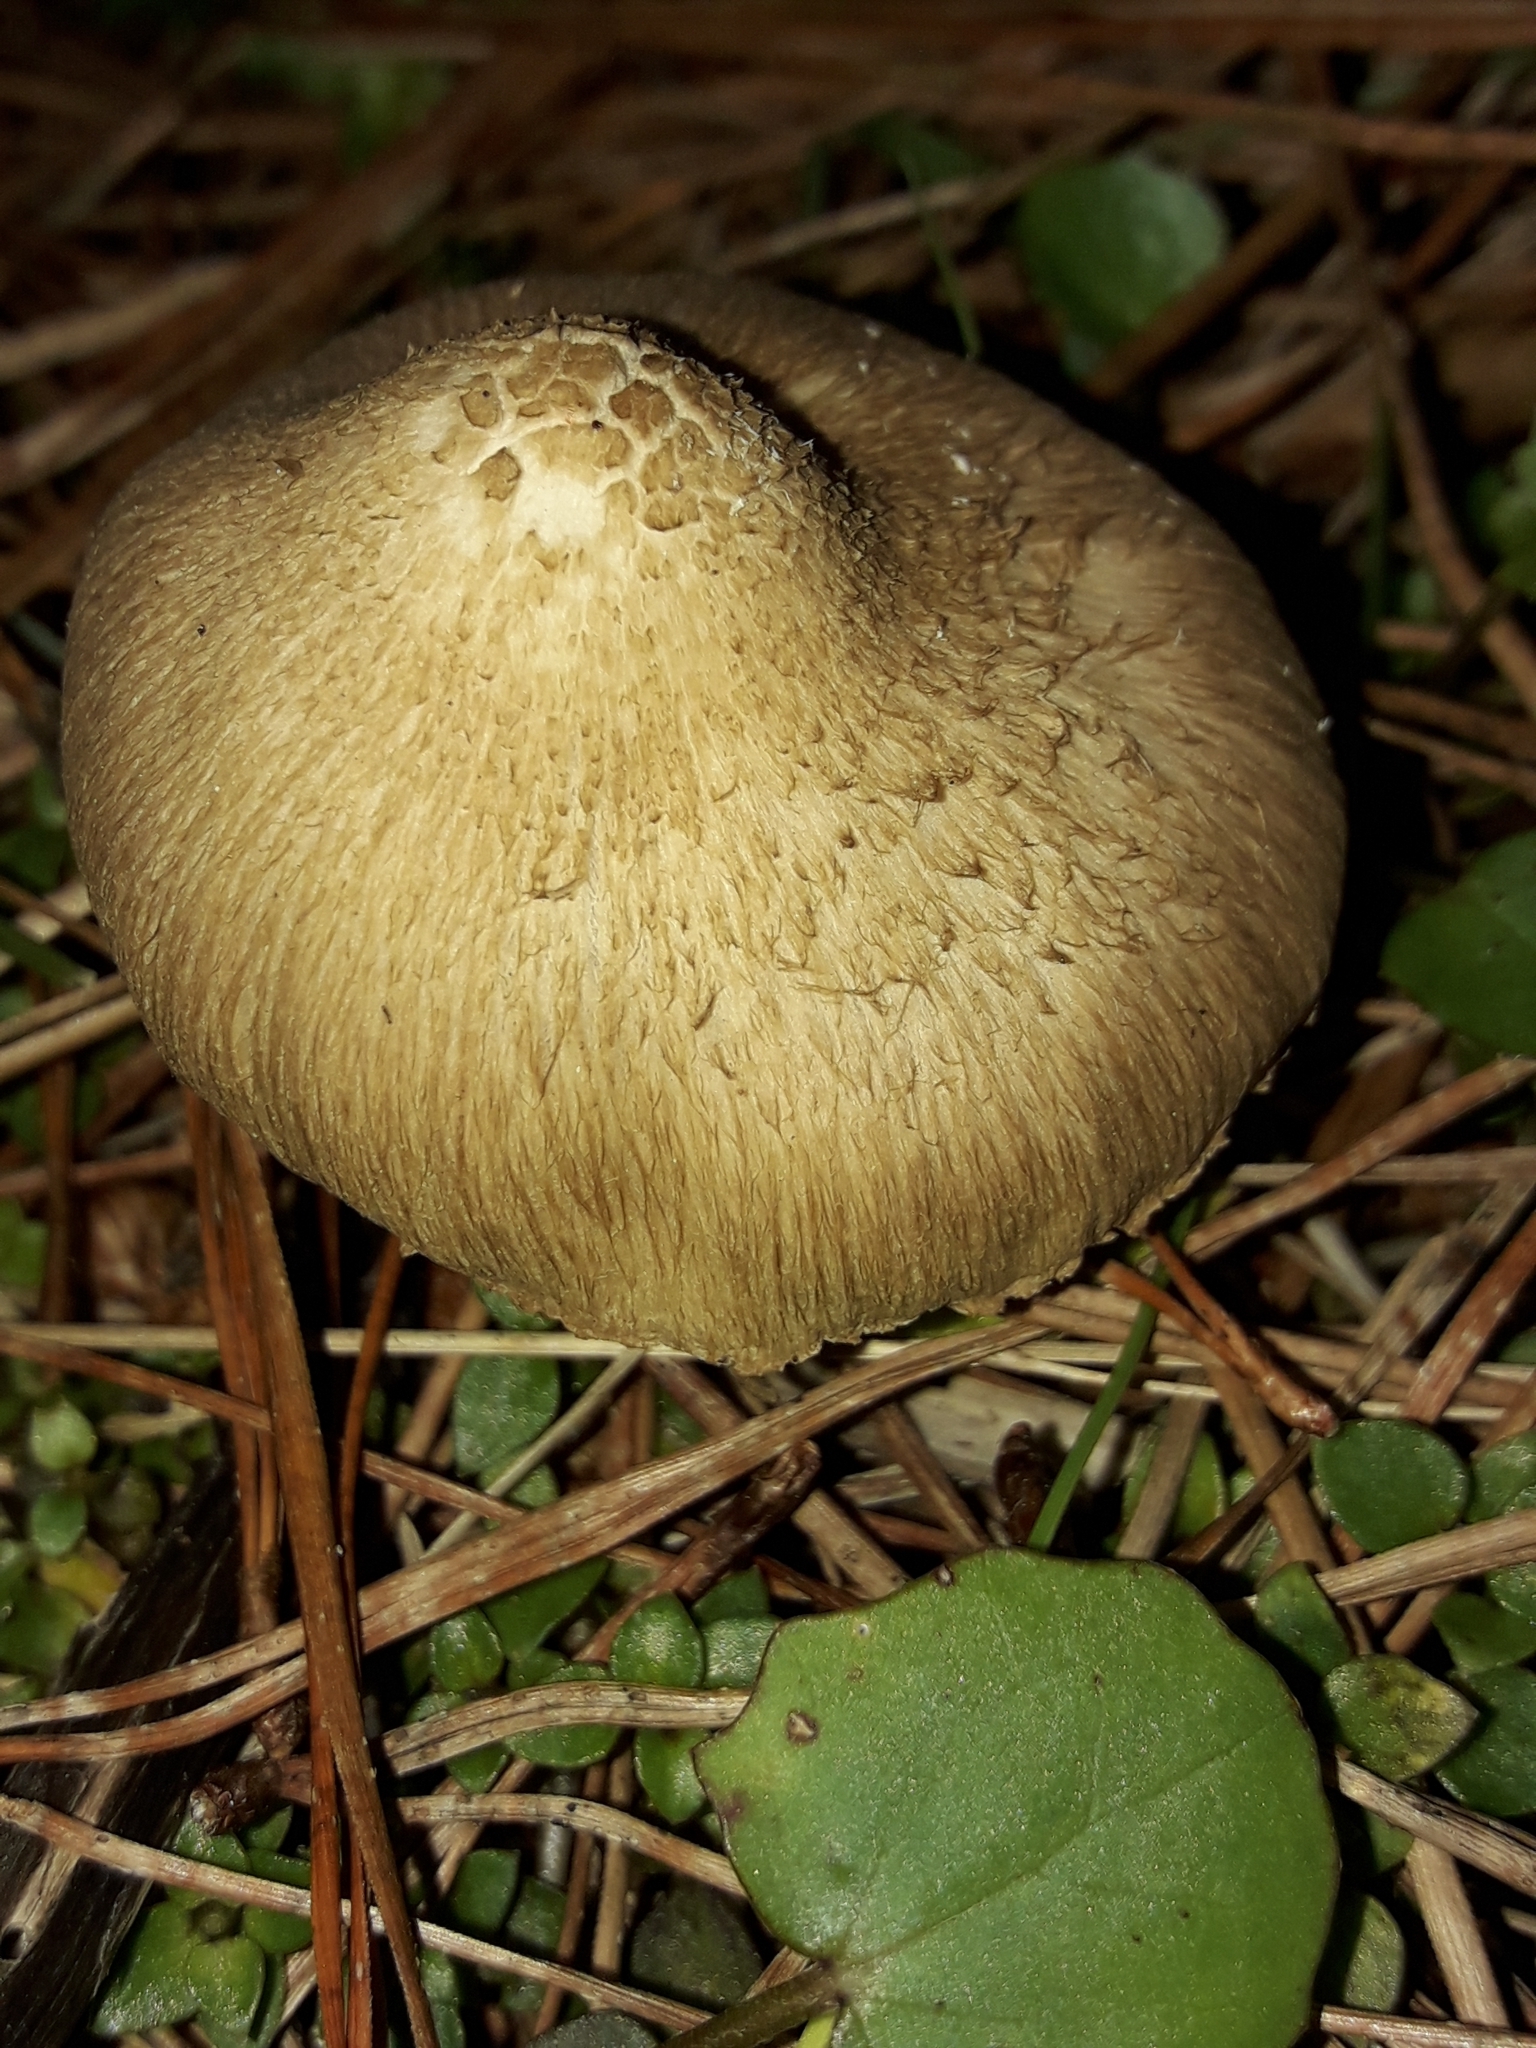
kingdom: Fungi
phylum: Basidiomycota
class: Agaricomycetes
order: Agaricales
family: Inocybaceae
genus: Inocybe
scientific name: Inocybe sindonia
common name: Beige fibrecap
